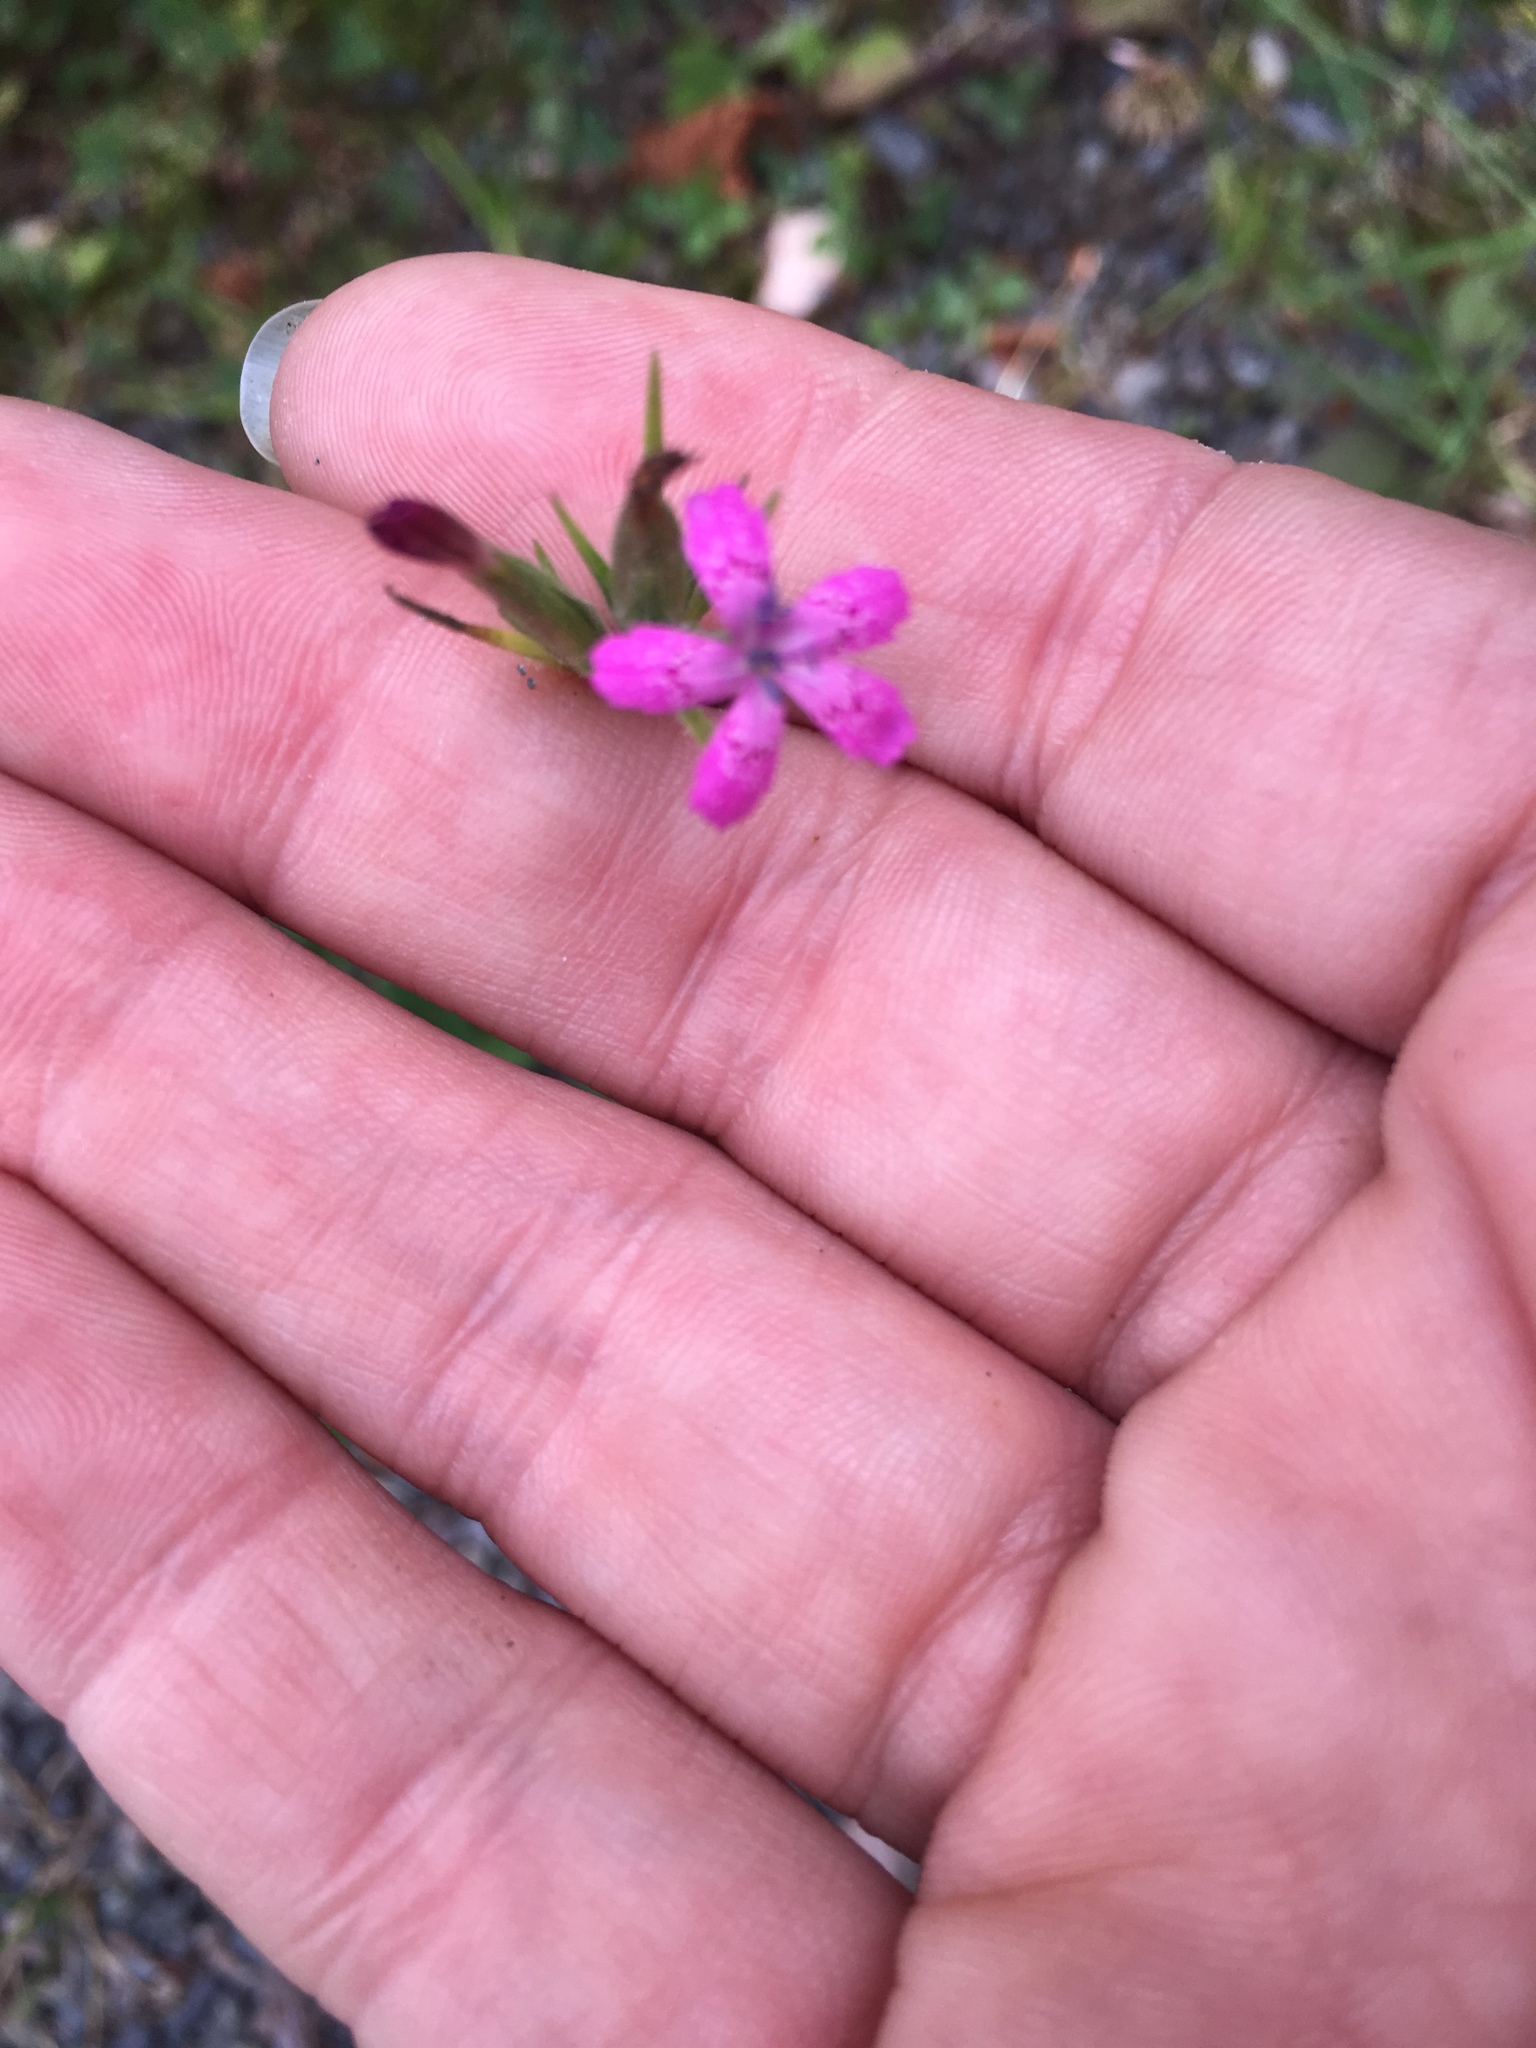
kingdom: Plantae
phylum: Tracheophyta
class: Magnoliopsida
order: Caryophyllales
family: Caryophyllaceae
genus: Dianthus
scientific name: Dianthus armeria
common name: Deptford pink
